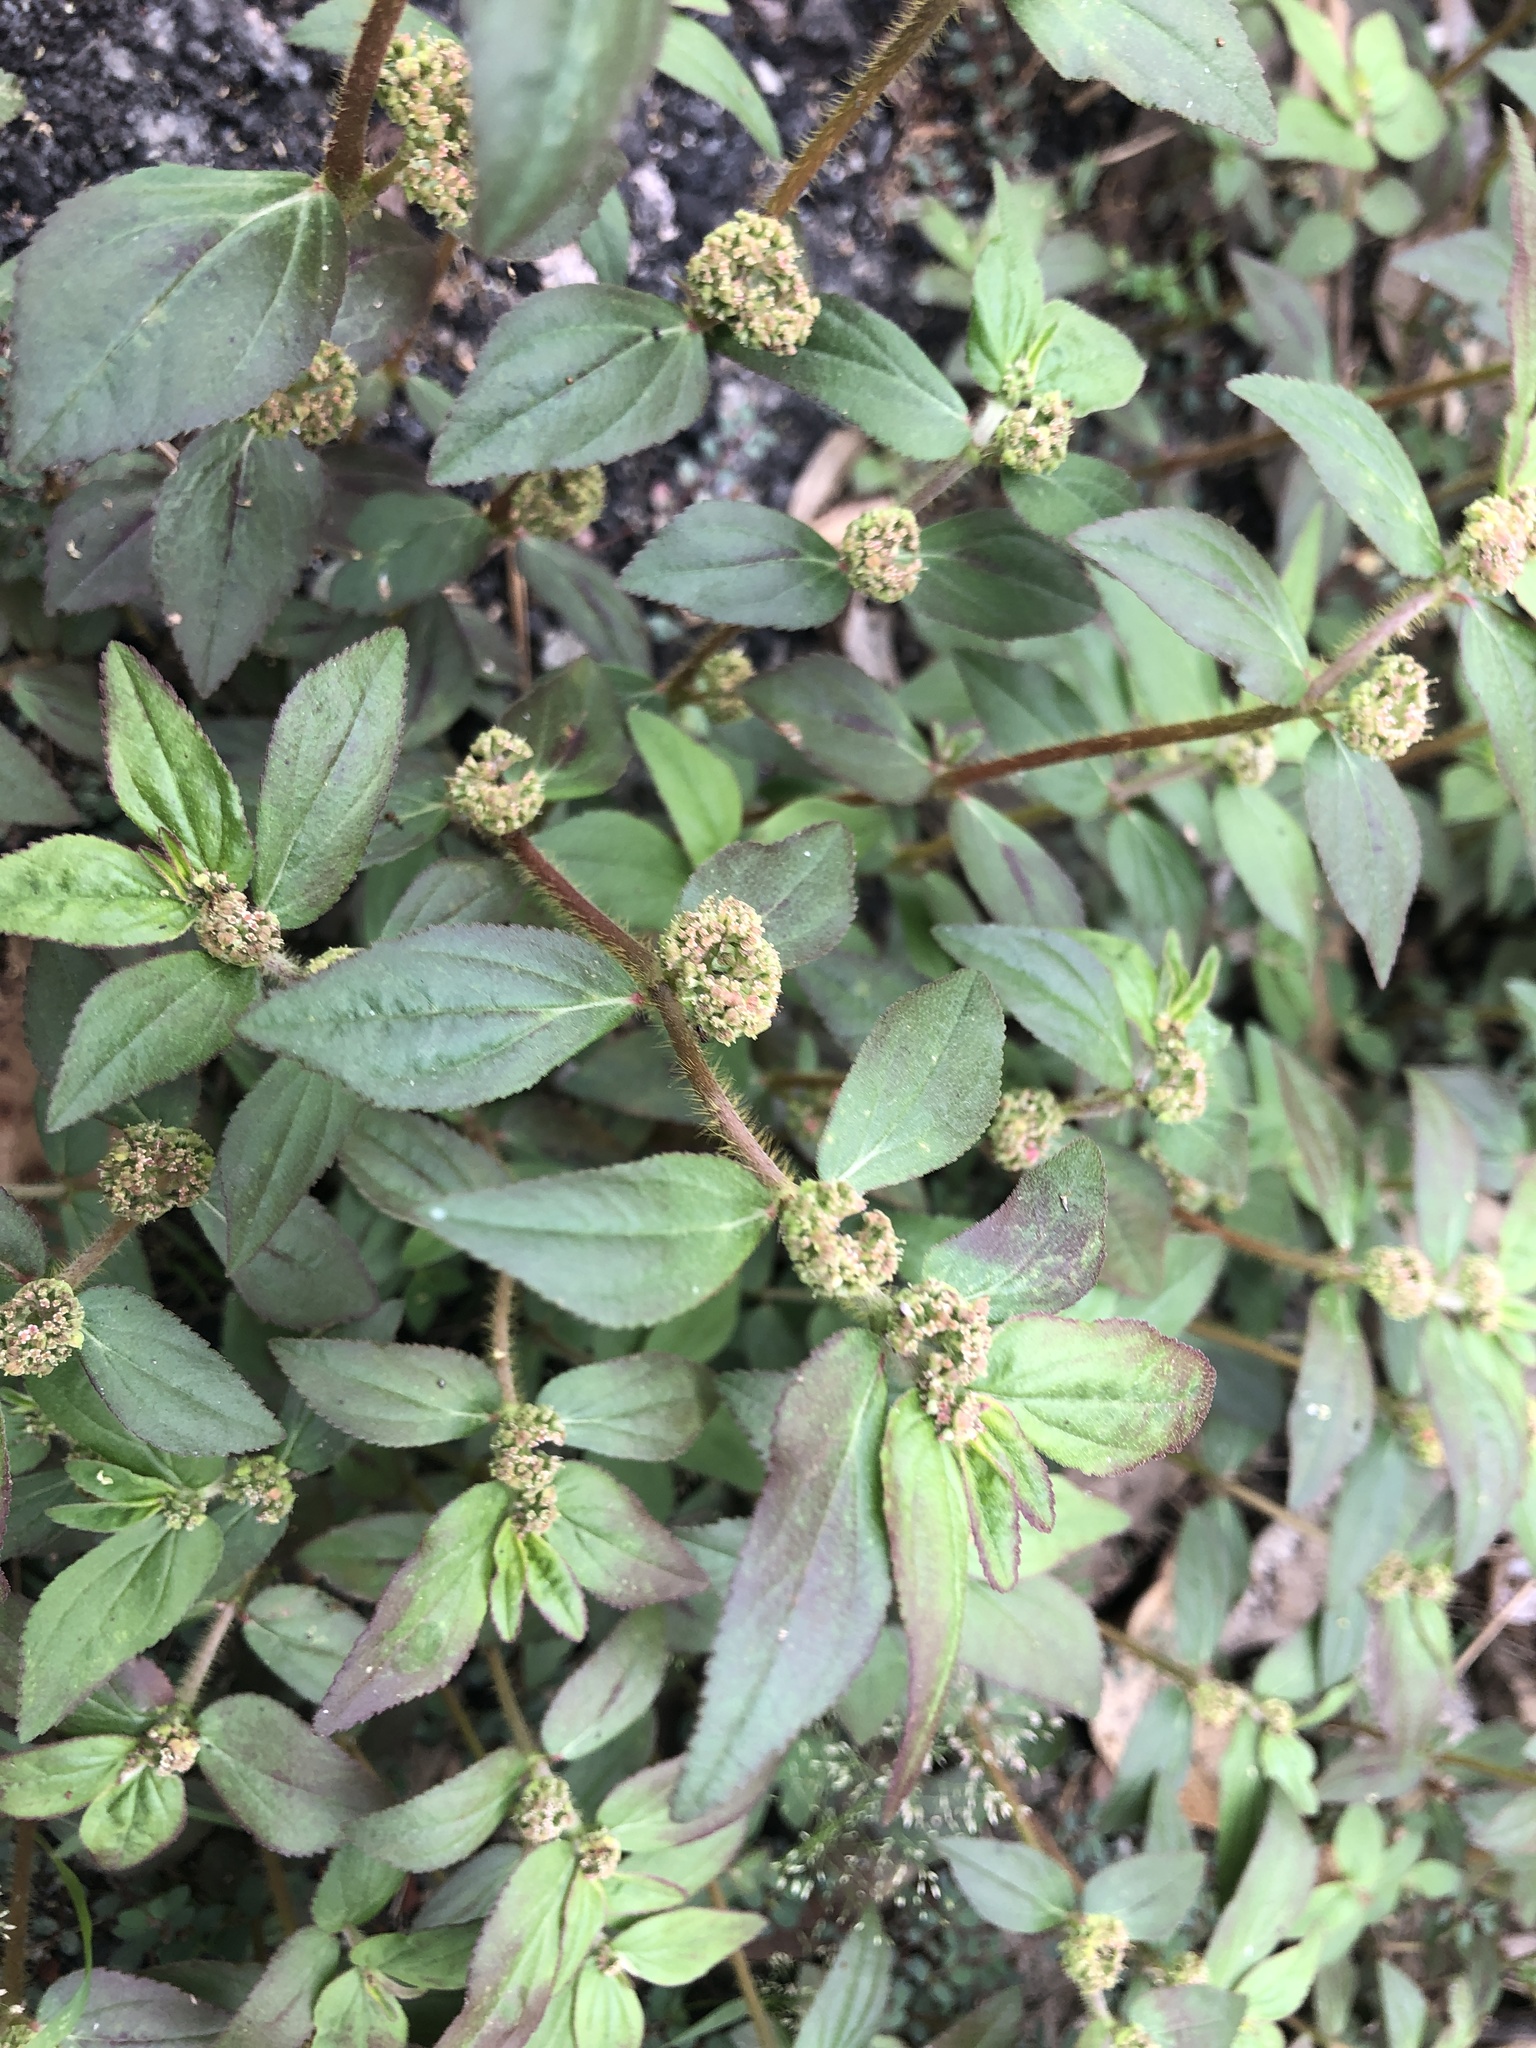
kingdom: Plantae
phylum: Tracheophyta
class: Magnoliopsida
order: Malpighiales
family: Euphorbiaceae
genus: Euphorbia
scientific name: Euphorbia hirta
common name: Pillpod sandmat
